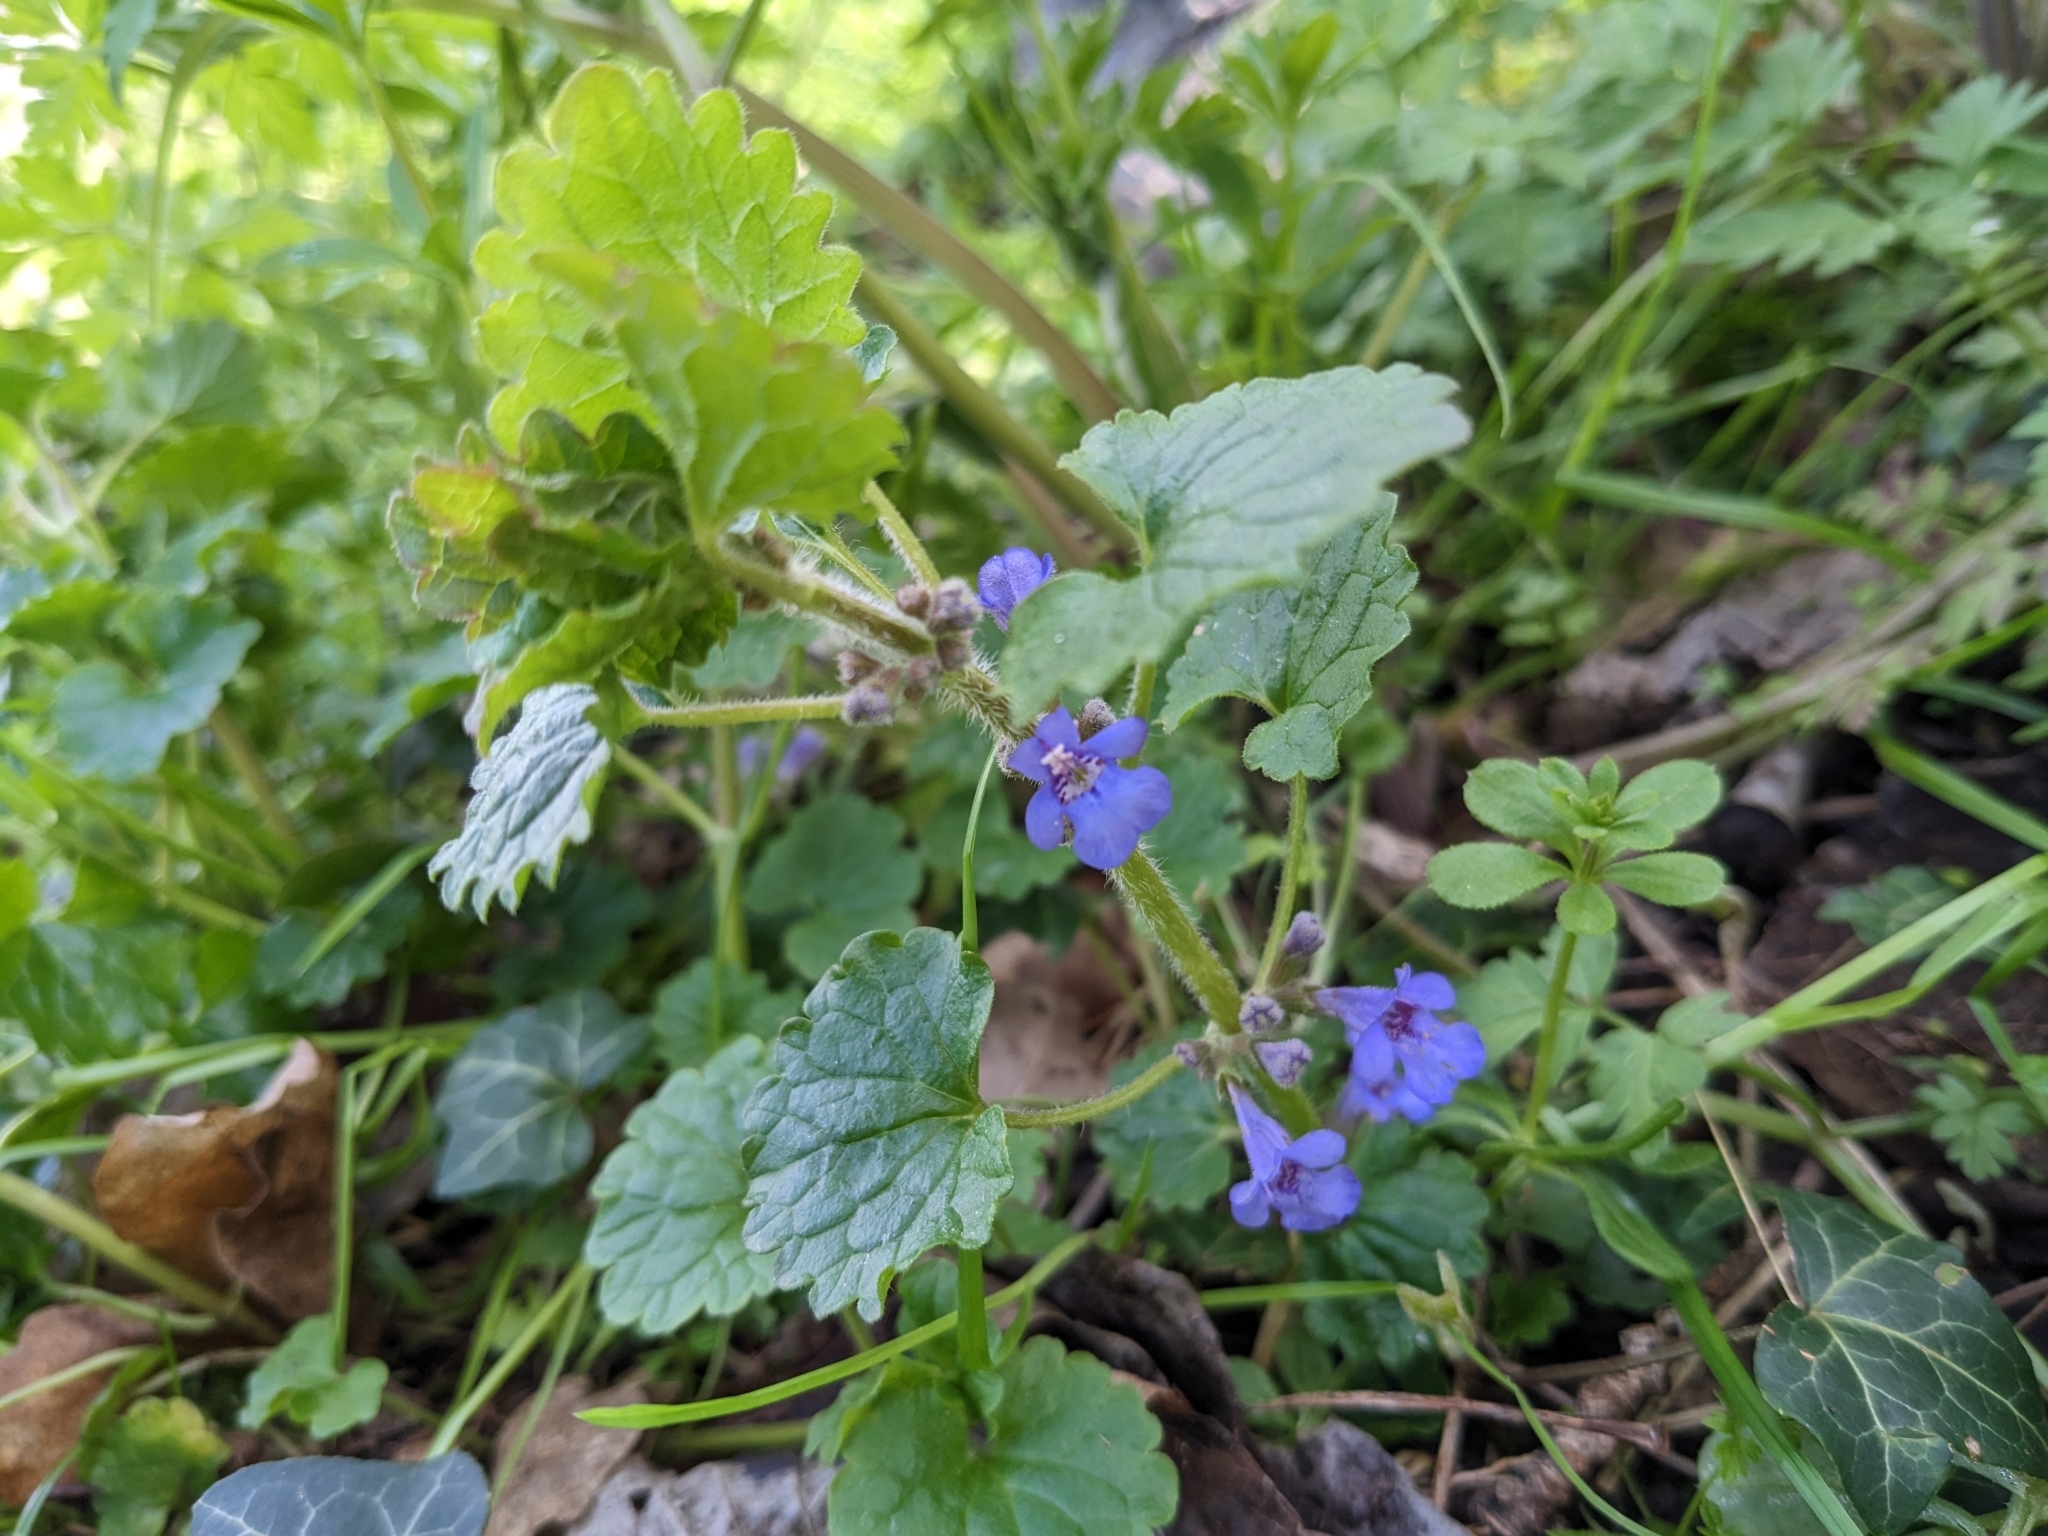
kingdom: Plantae
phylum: Tracheophyta
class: Magnoliopsida
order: Lamiales
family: Lamiaceae
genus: Glechoma
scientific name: Glechoma hederacea
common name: Ground ivy
